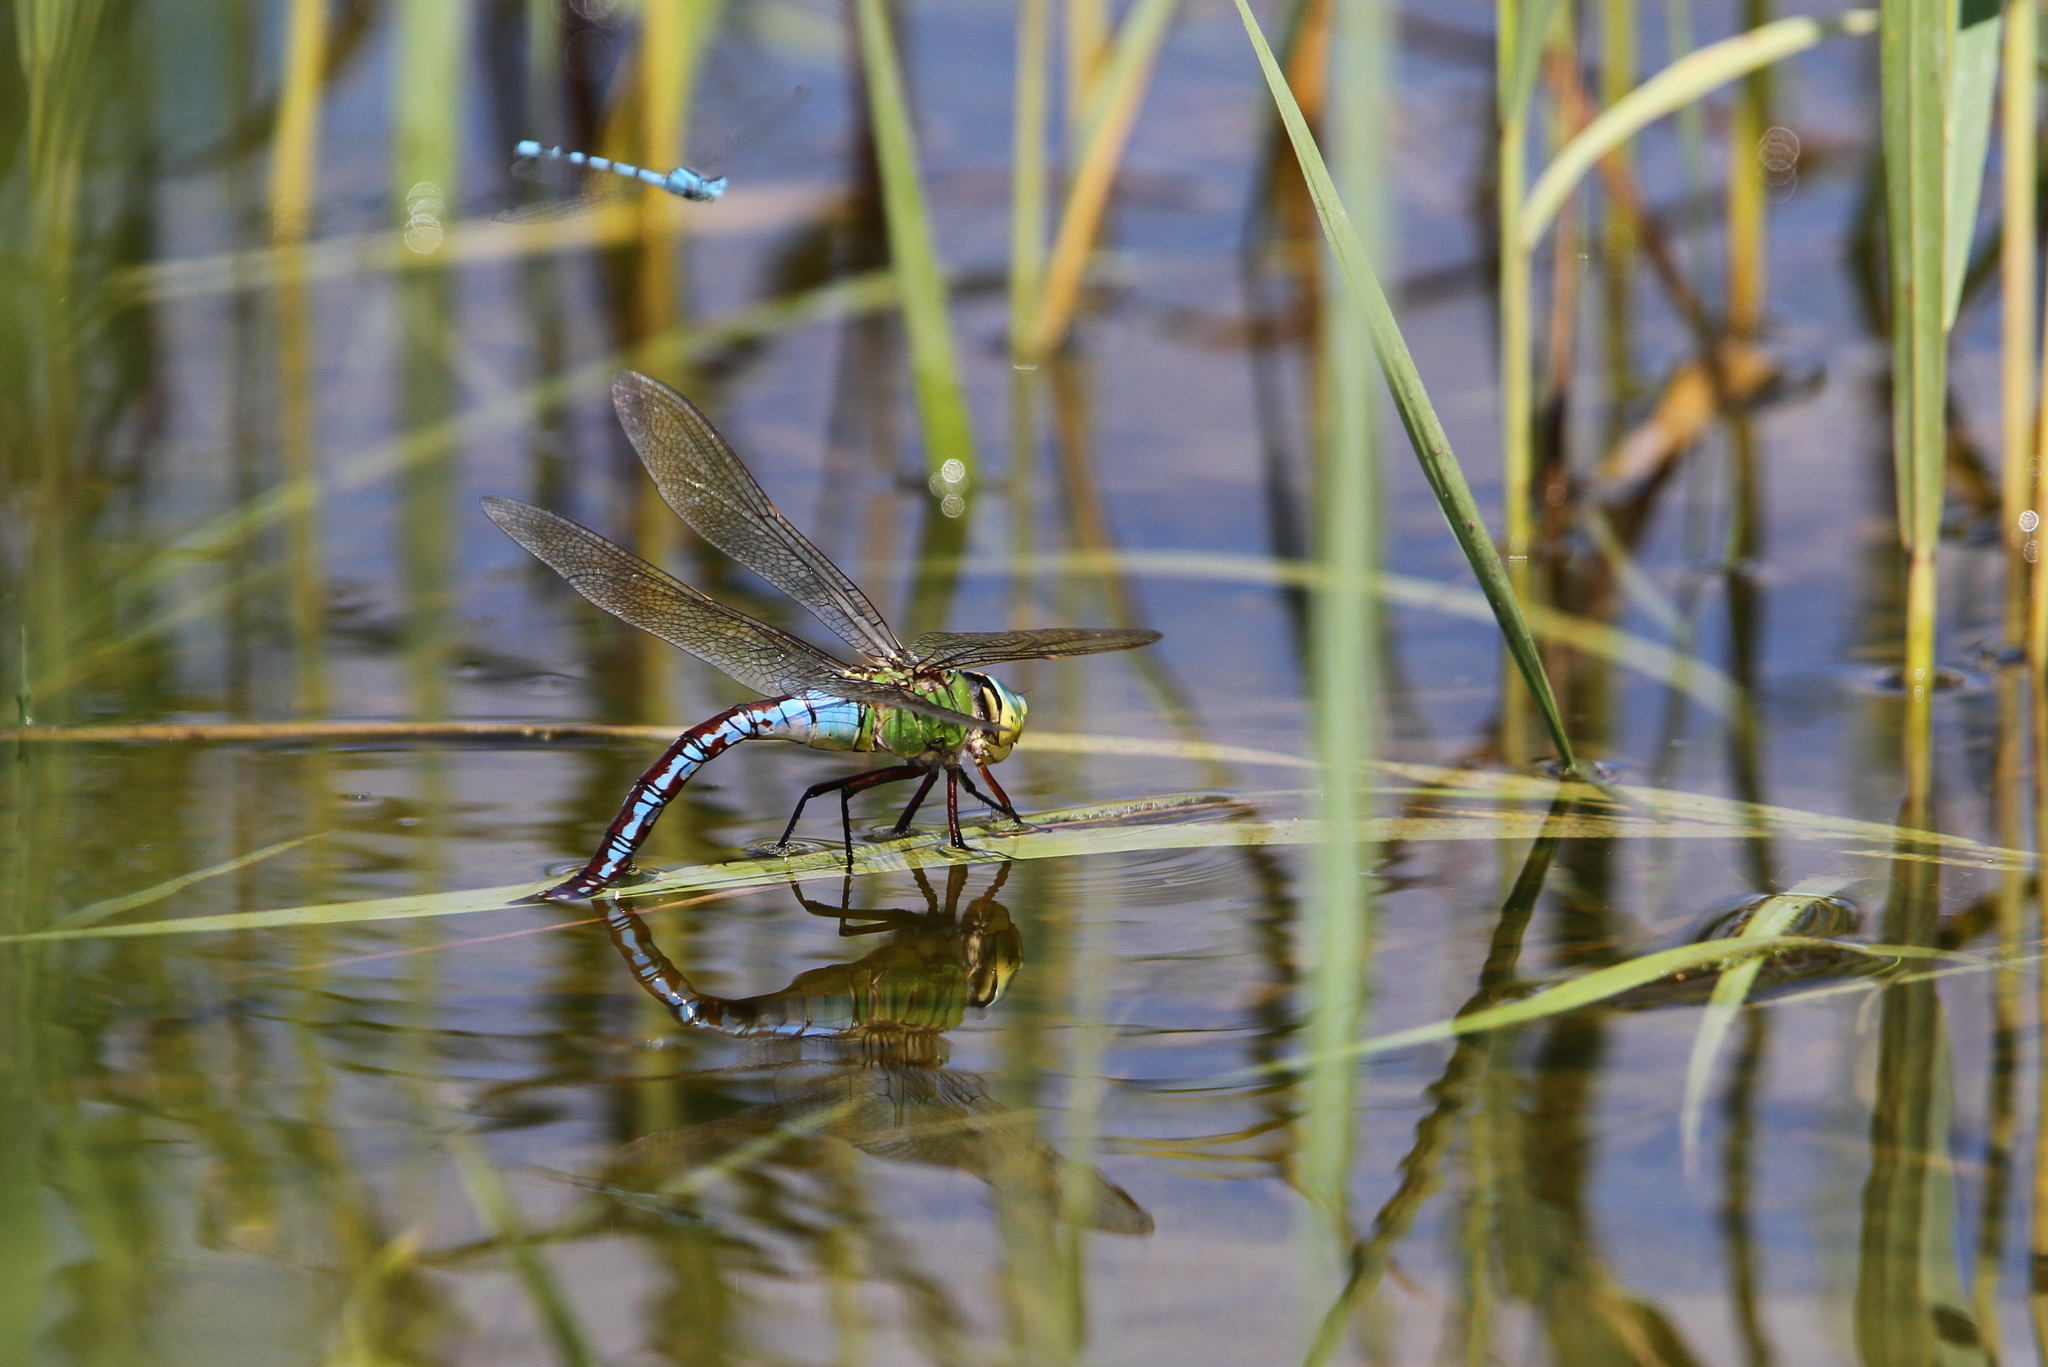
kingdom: Animalia
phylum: Arthropoda
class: Insecta
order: Odonata
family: Aeshnidae
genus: Anax
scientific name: Anax imperator
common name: Emperor dragonfly
